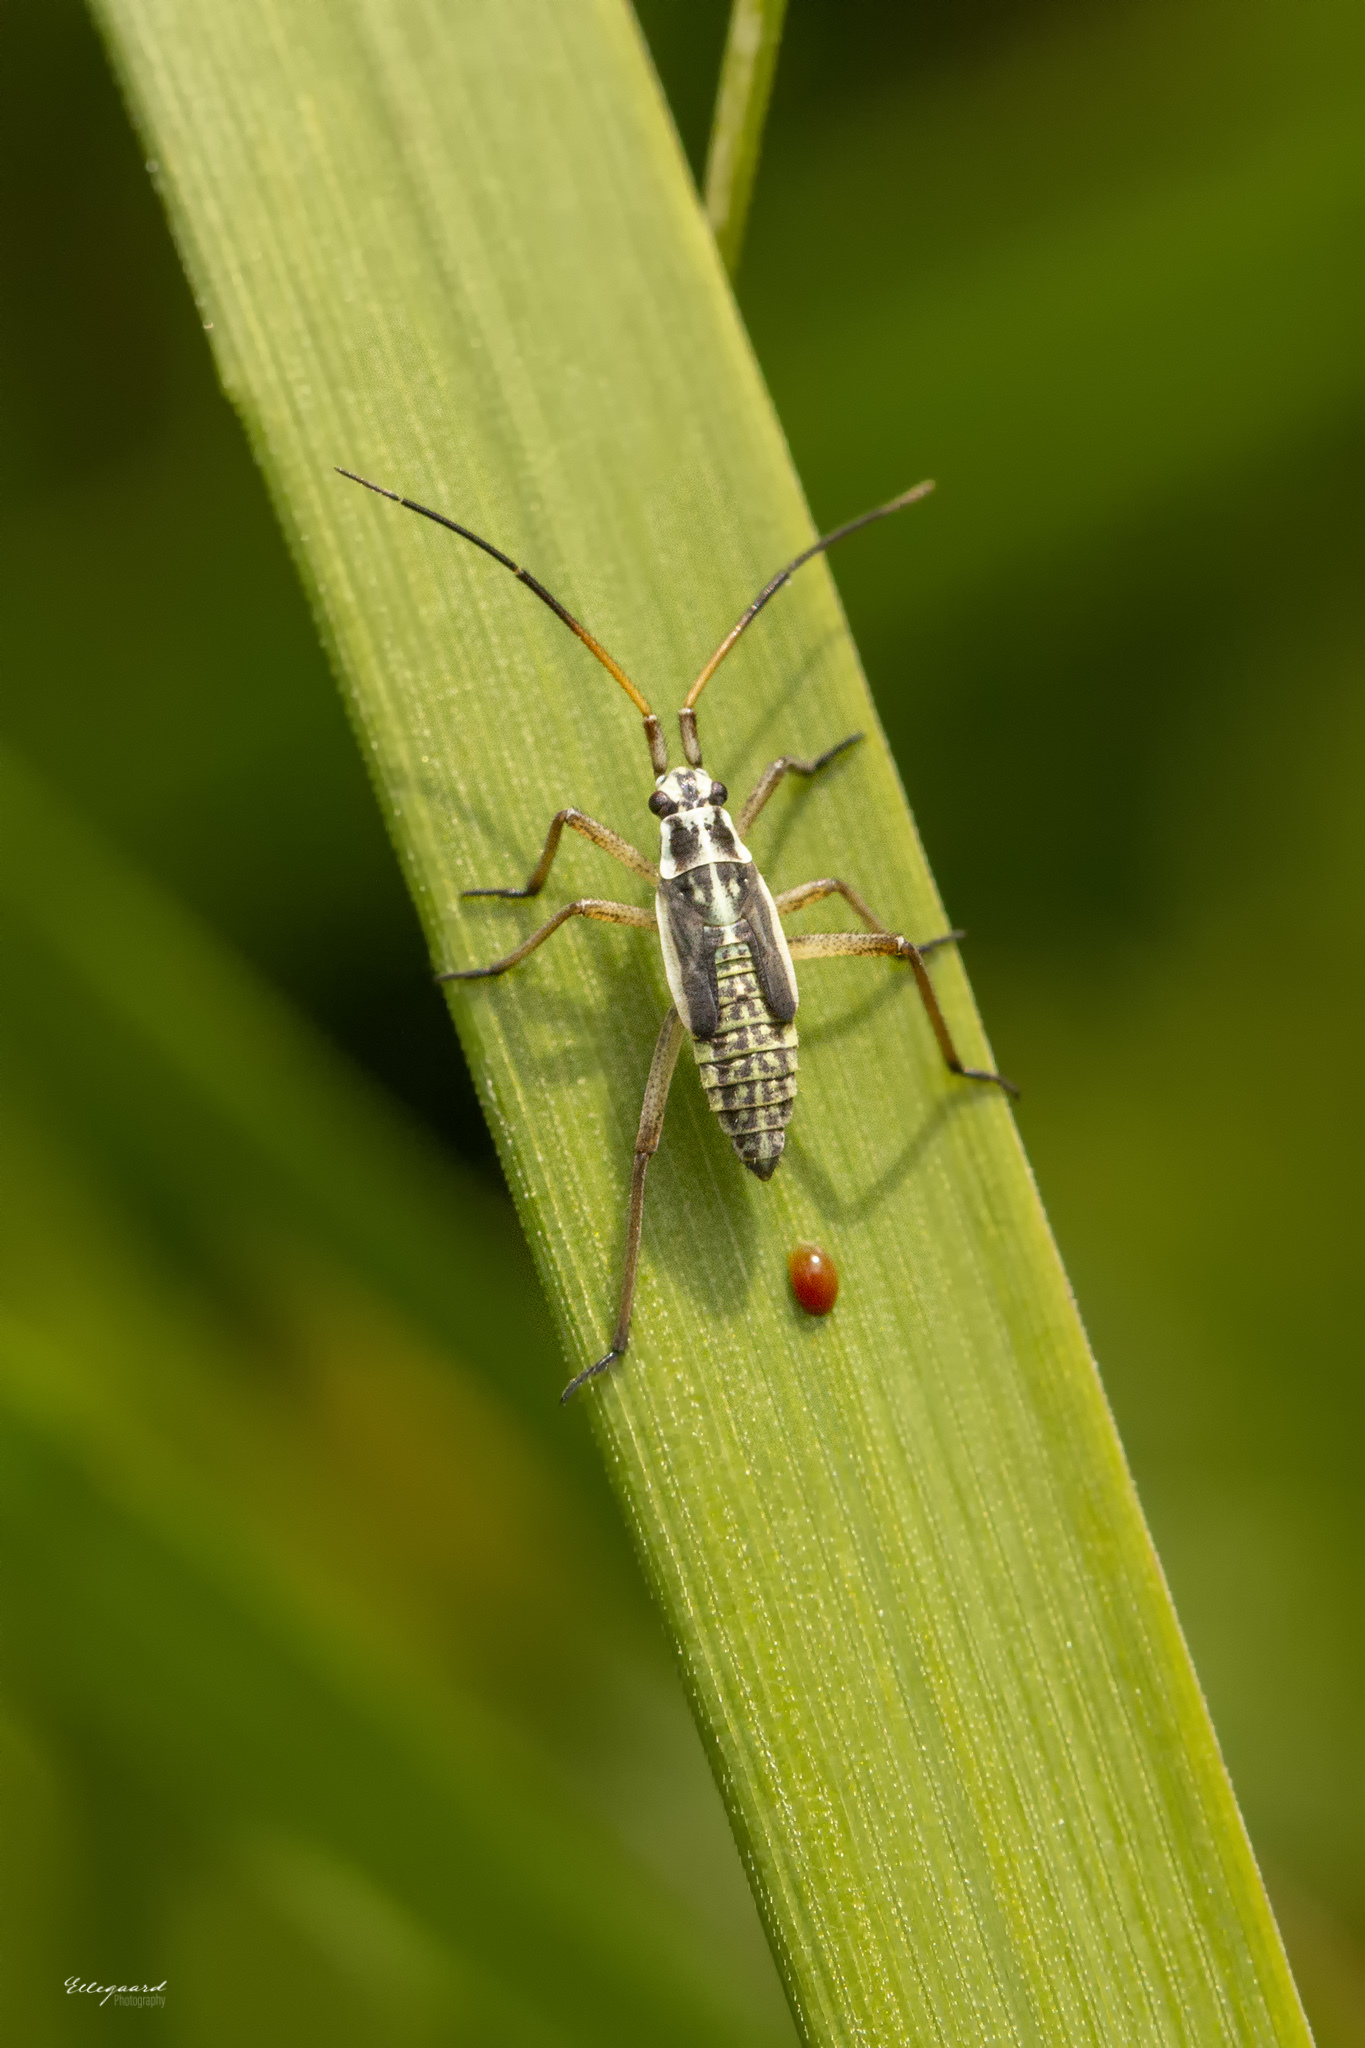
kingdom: Animalia
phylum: Arthropoda
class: Insecta
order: Hemiptera
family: Miridae
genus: Leptopterna
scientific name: Leptopterna dolabrata
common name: Meadow plant bug
